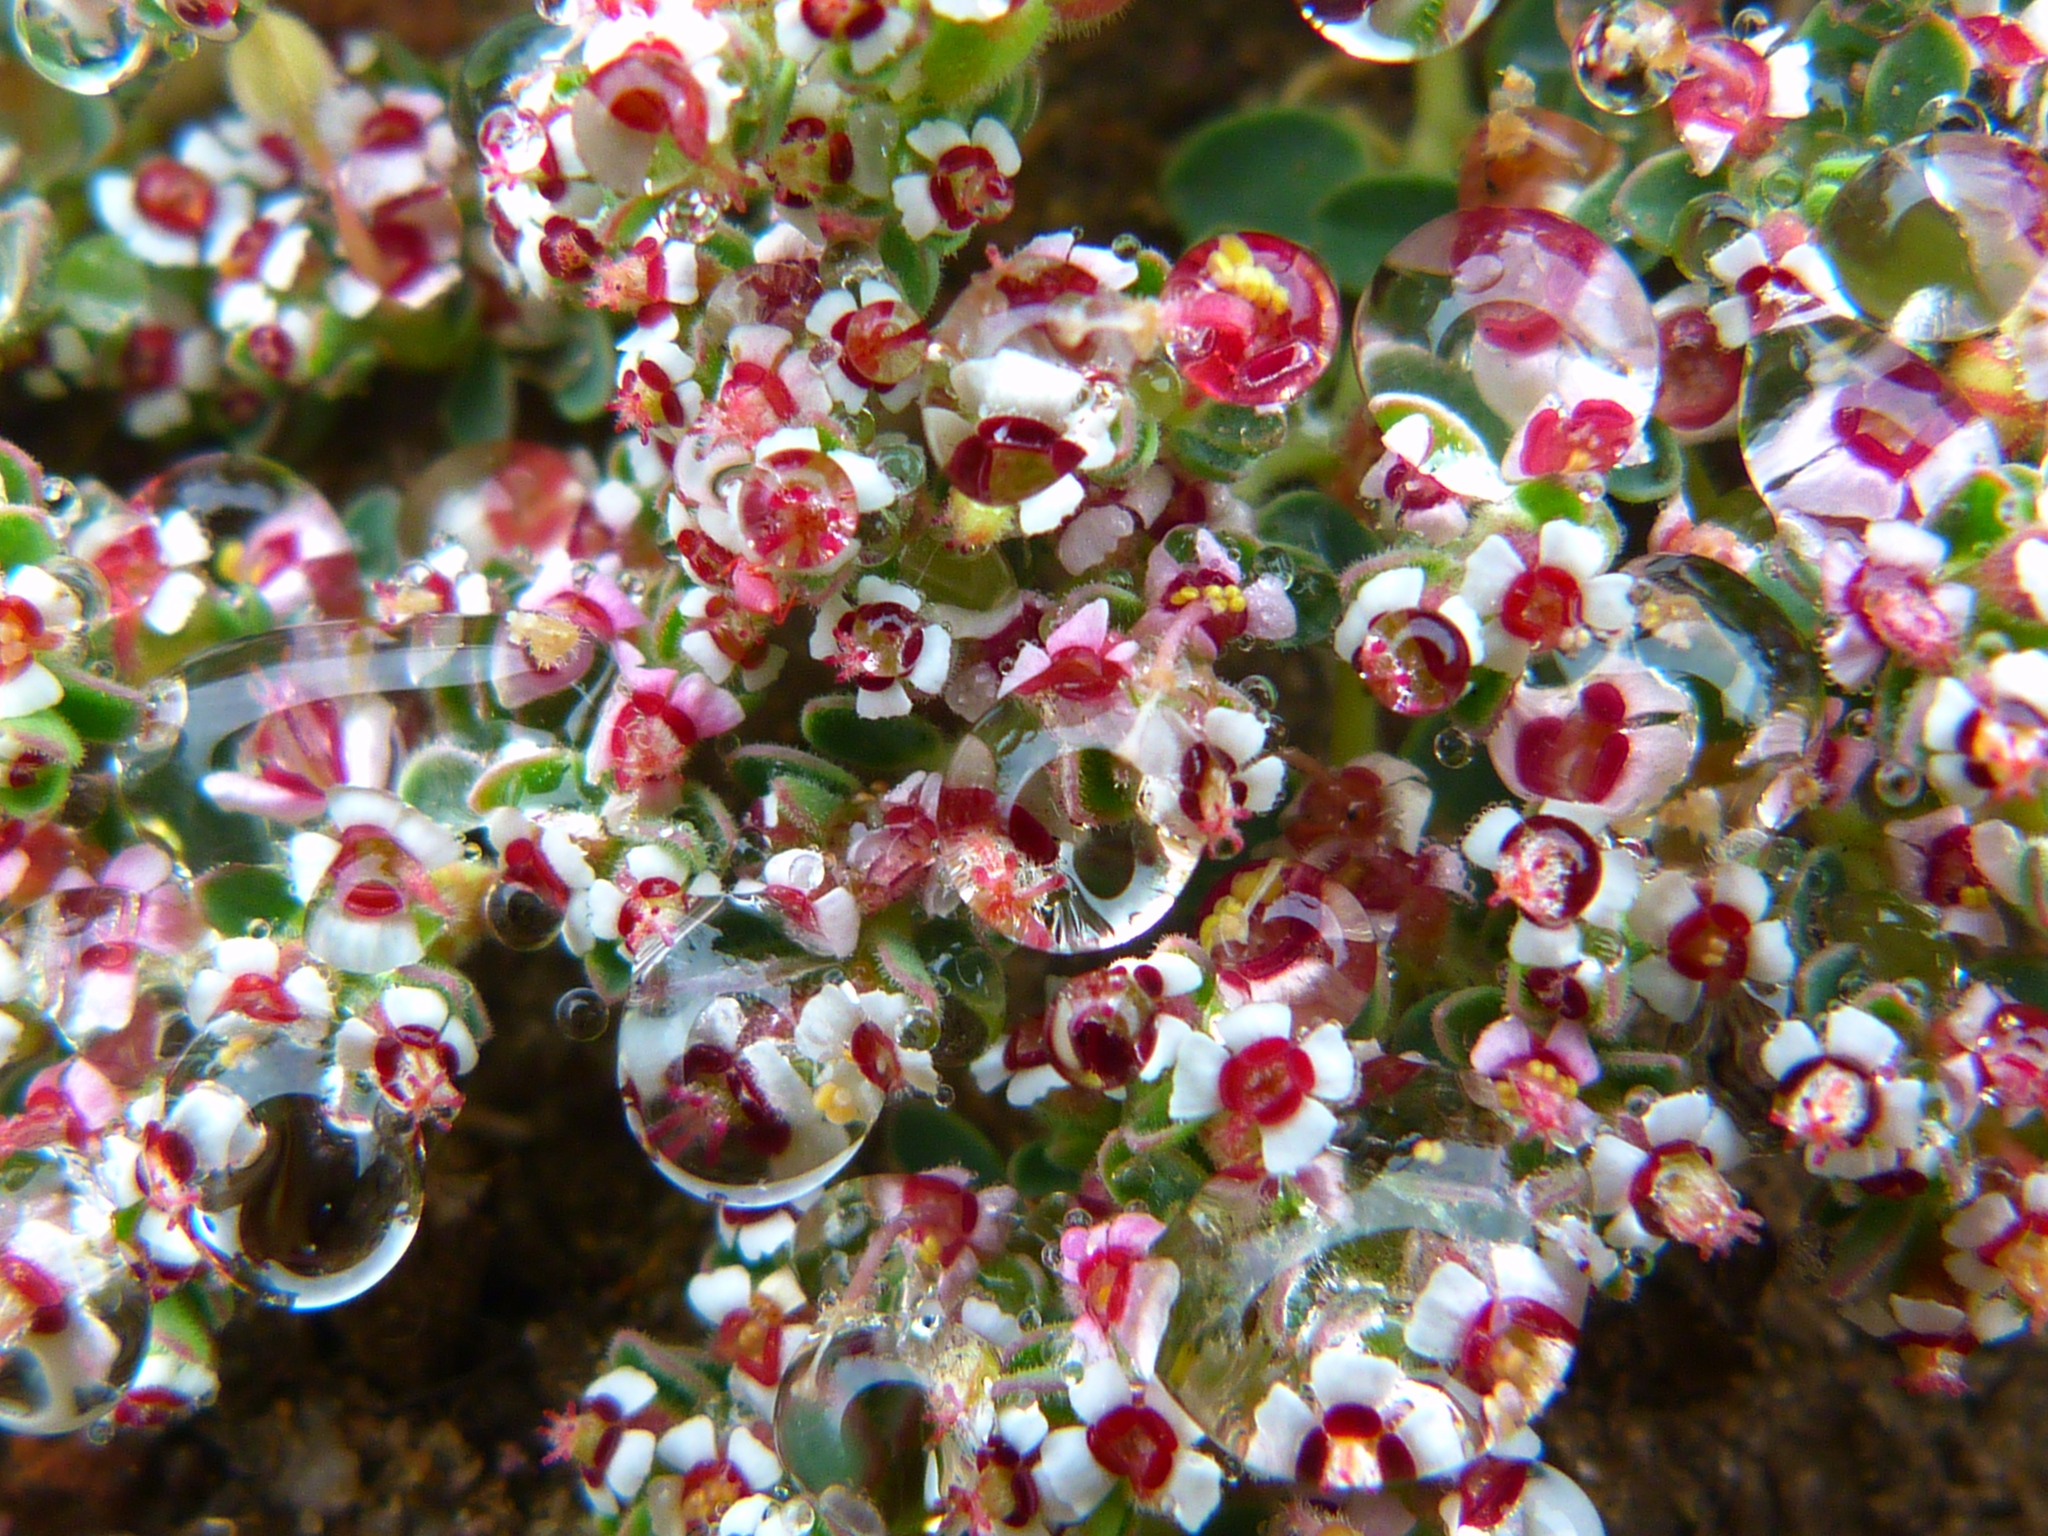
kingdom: Plantae
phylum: Tracheophyta
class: Magnoliopsida
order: Malpighiales
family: Euphorbiaceae
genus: Euphorbia
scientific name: Euphorbia polycarpa
